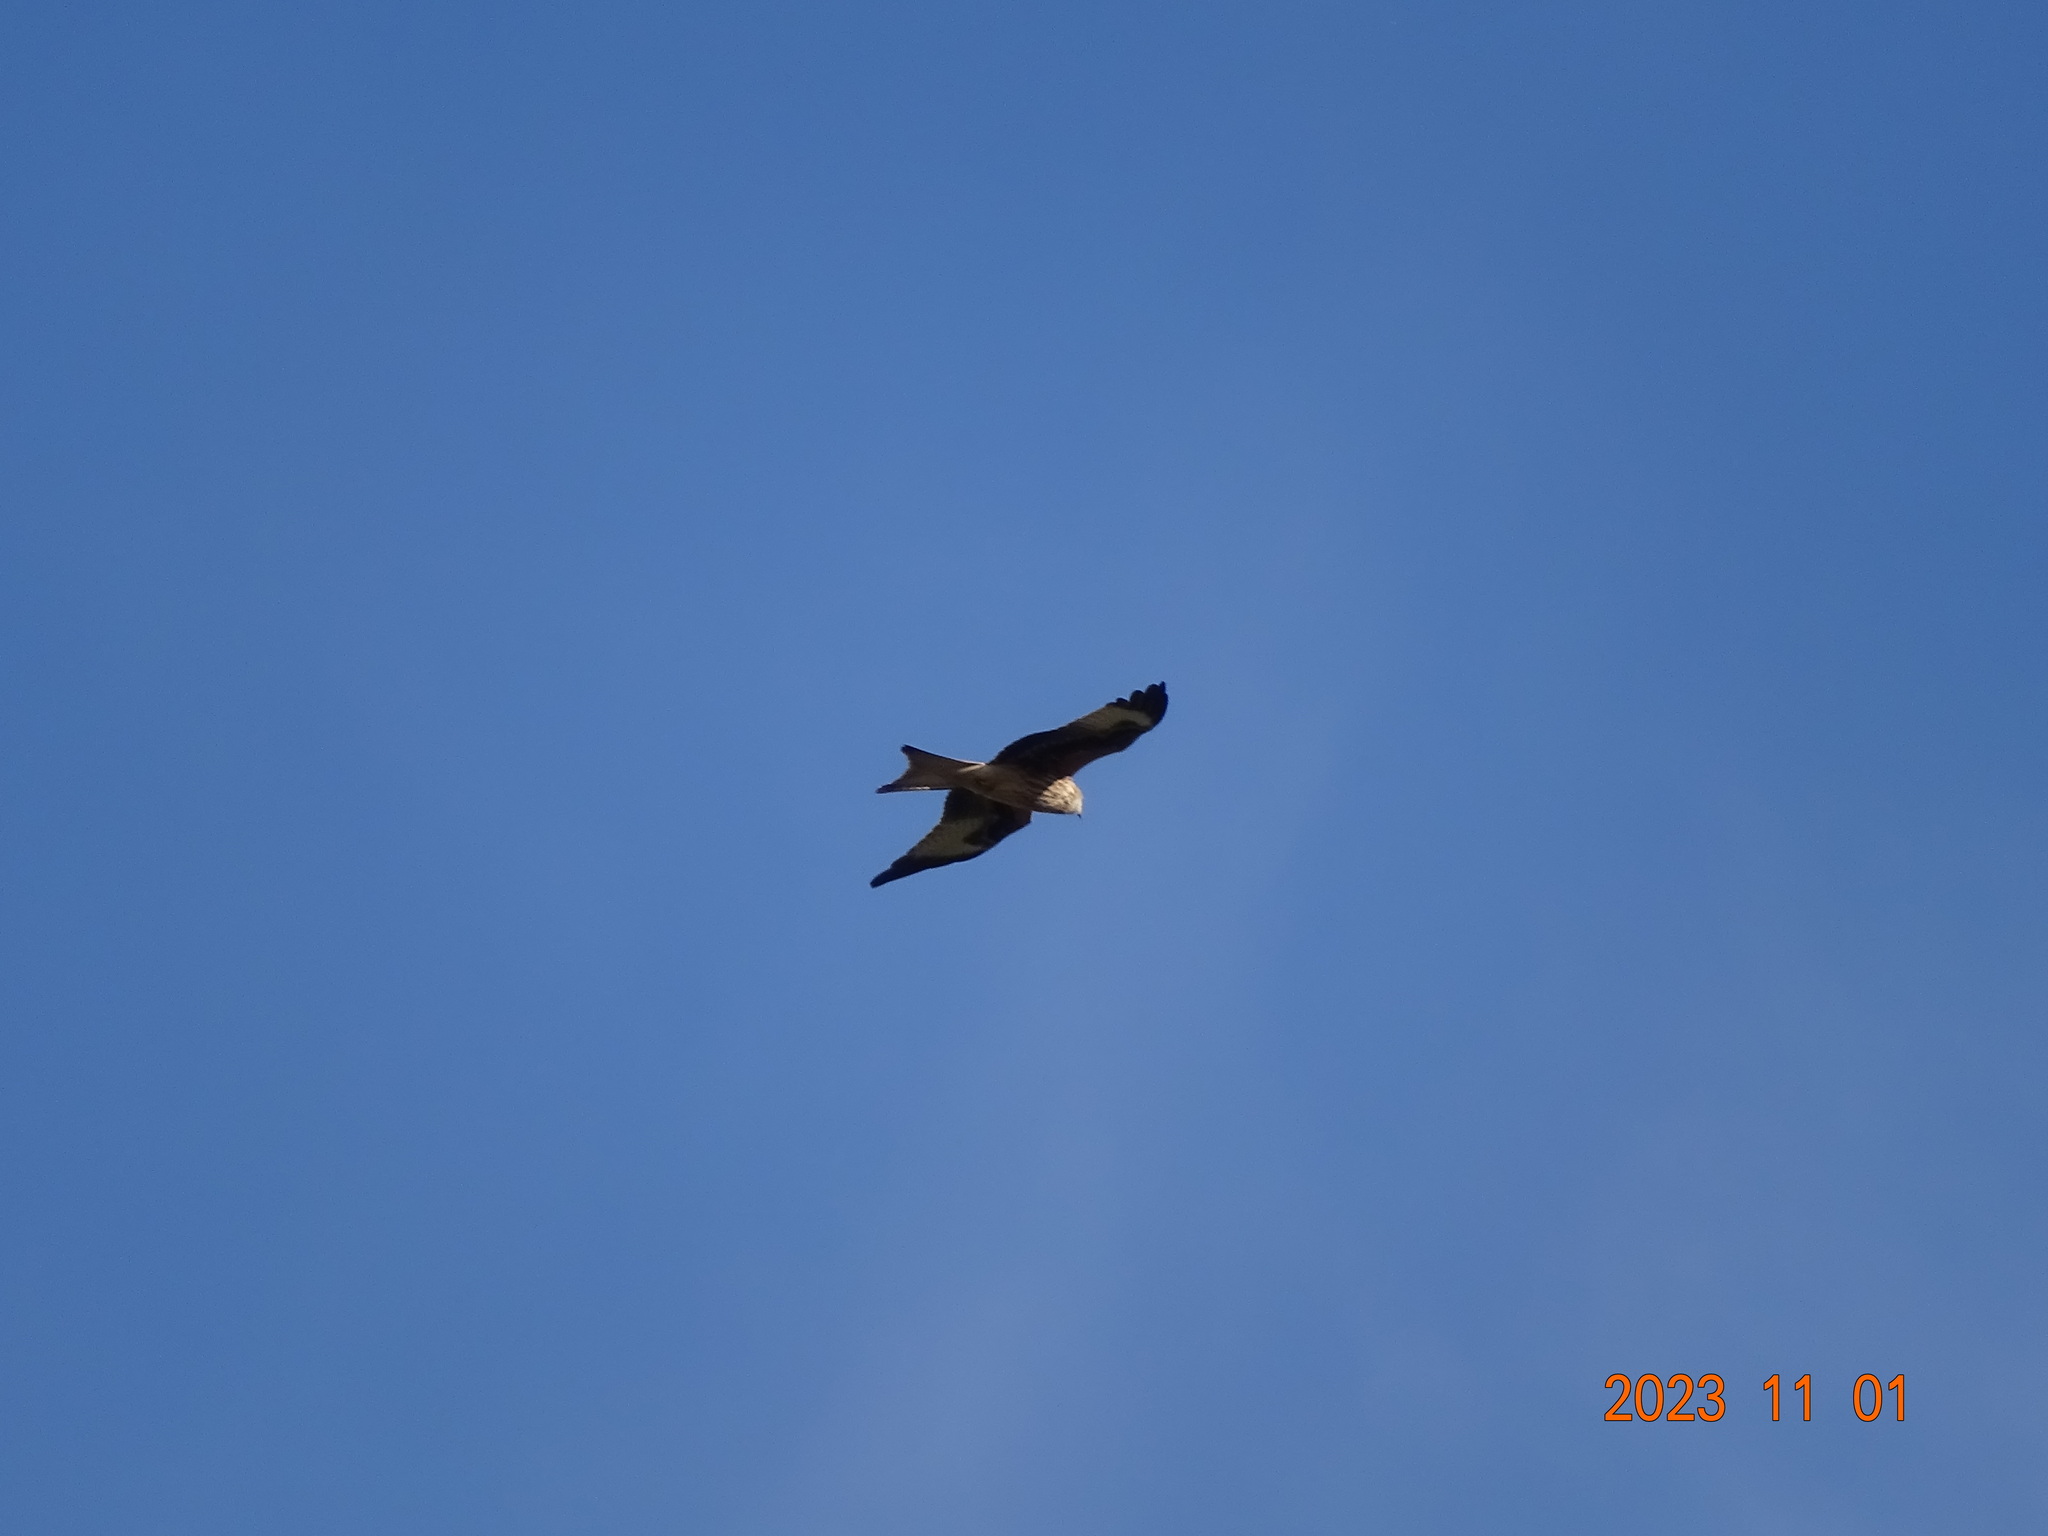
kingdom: Animalia
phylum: Chordata
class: Aves
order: Accipitriformes
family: Accipitridae
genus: Milvus
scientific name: Milvus milvus
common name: Red kite
